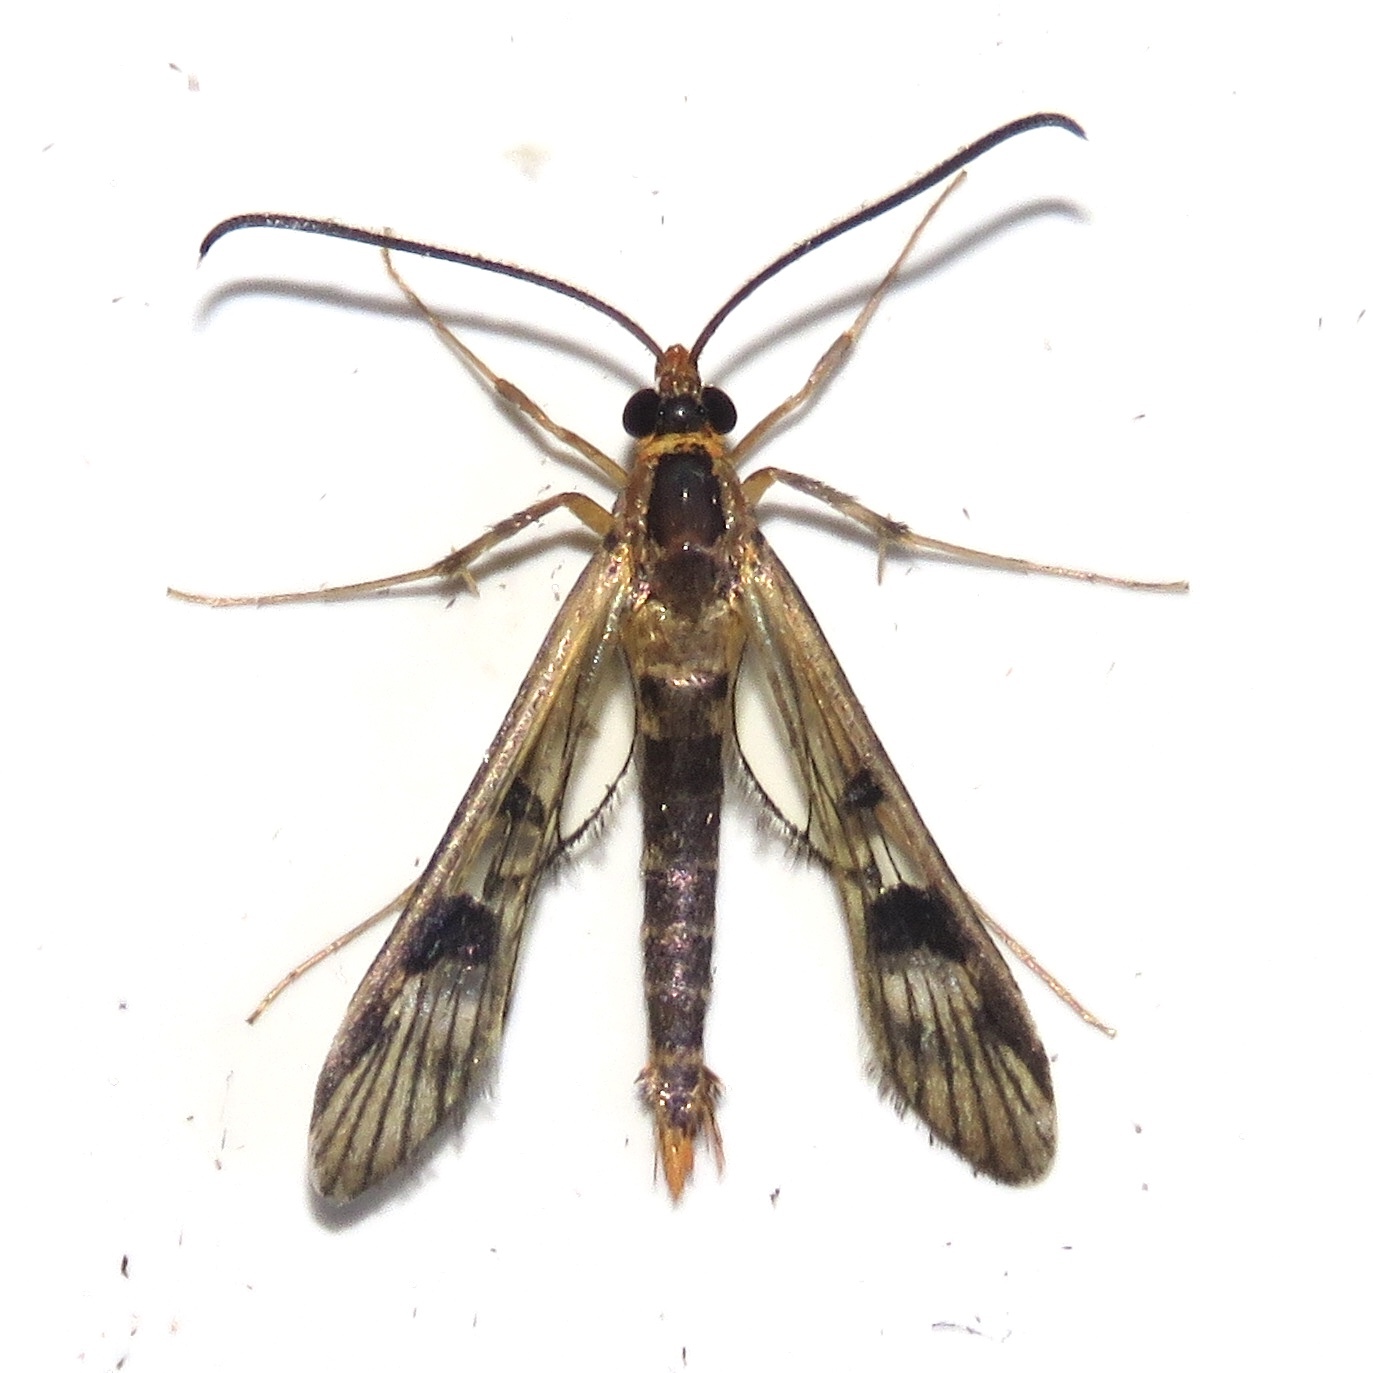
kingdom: Animalia
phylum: Arthropoda
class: Insecta
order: Lepidoptera
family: Sesiidae
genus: Synanthedon
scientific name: Synanthedon acerni
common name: Maple callus borer moth
